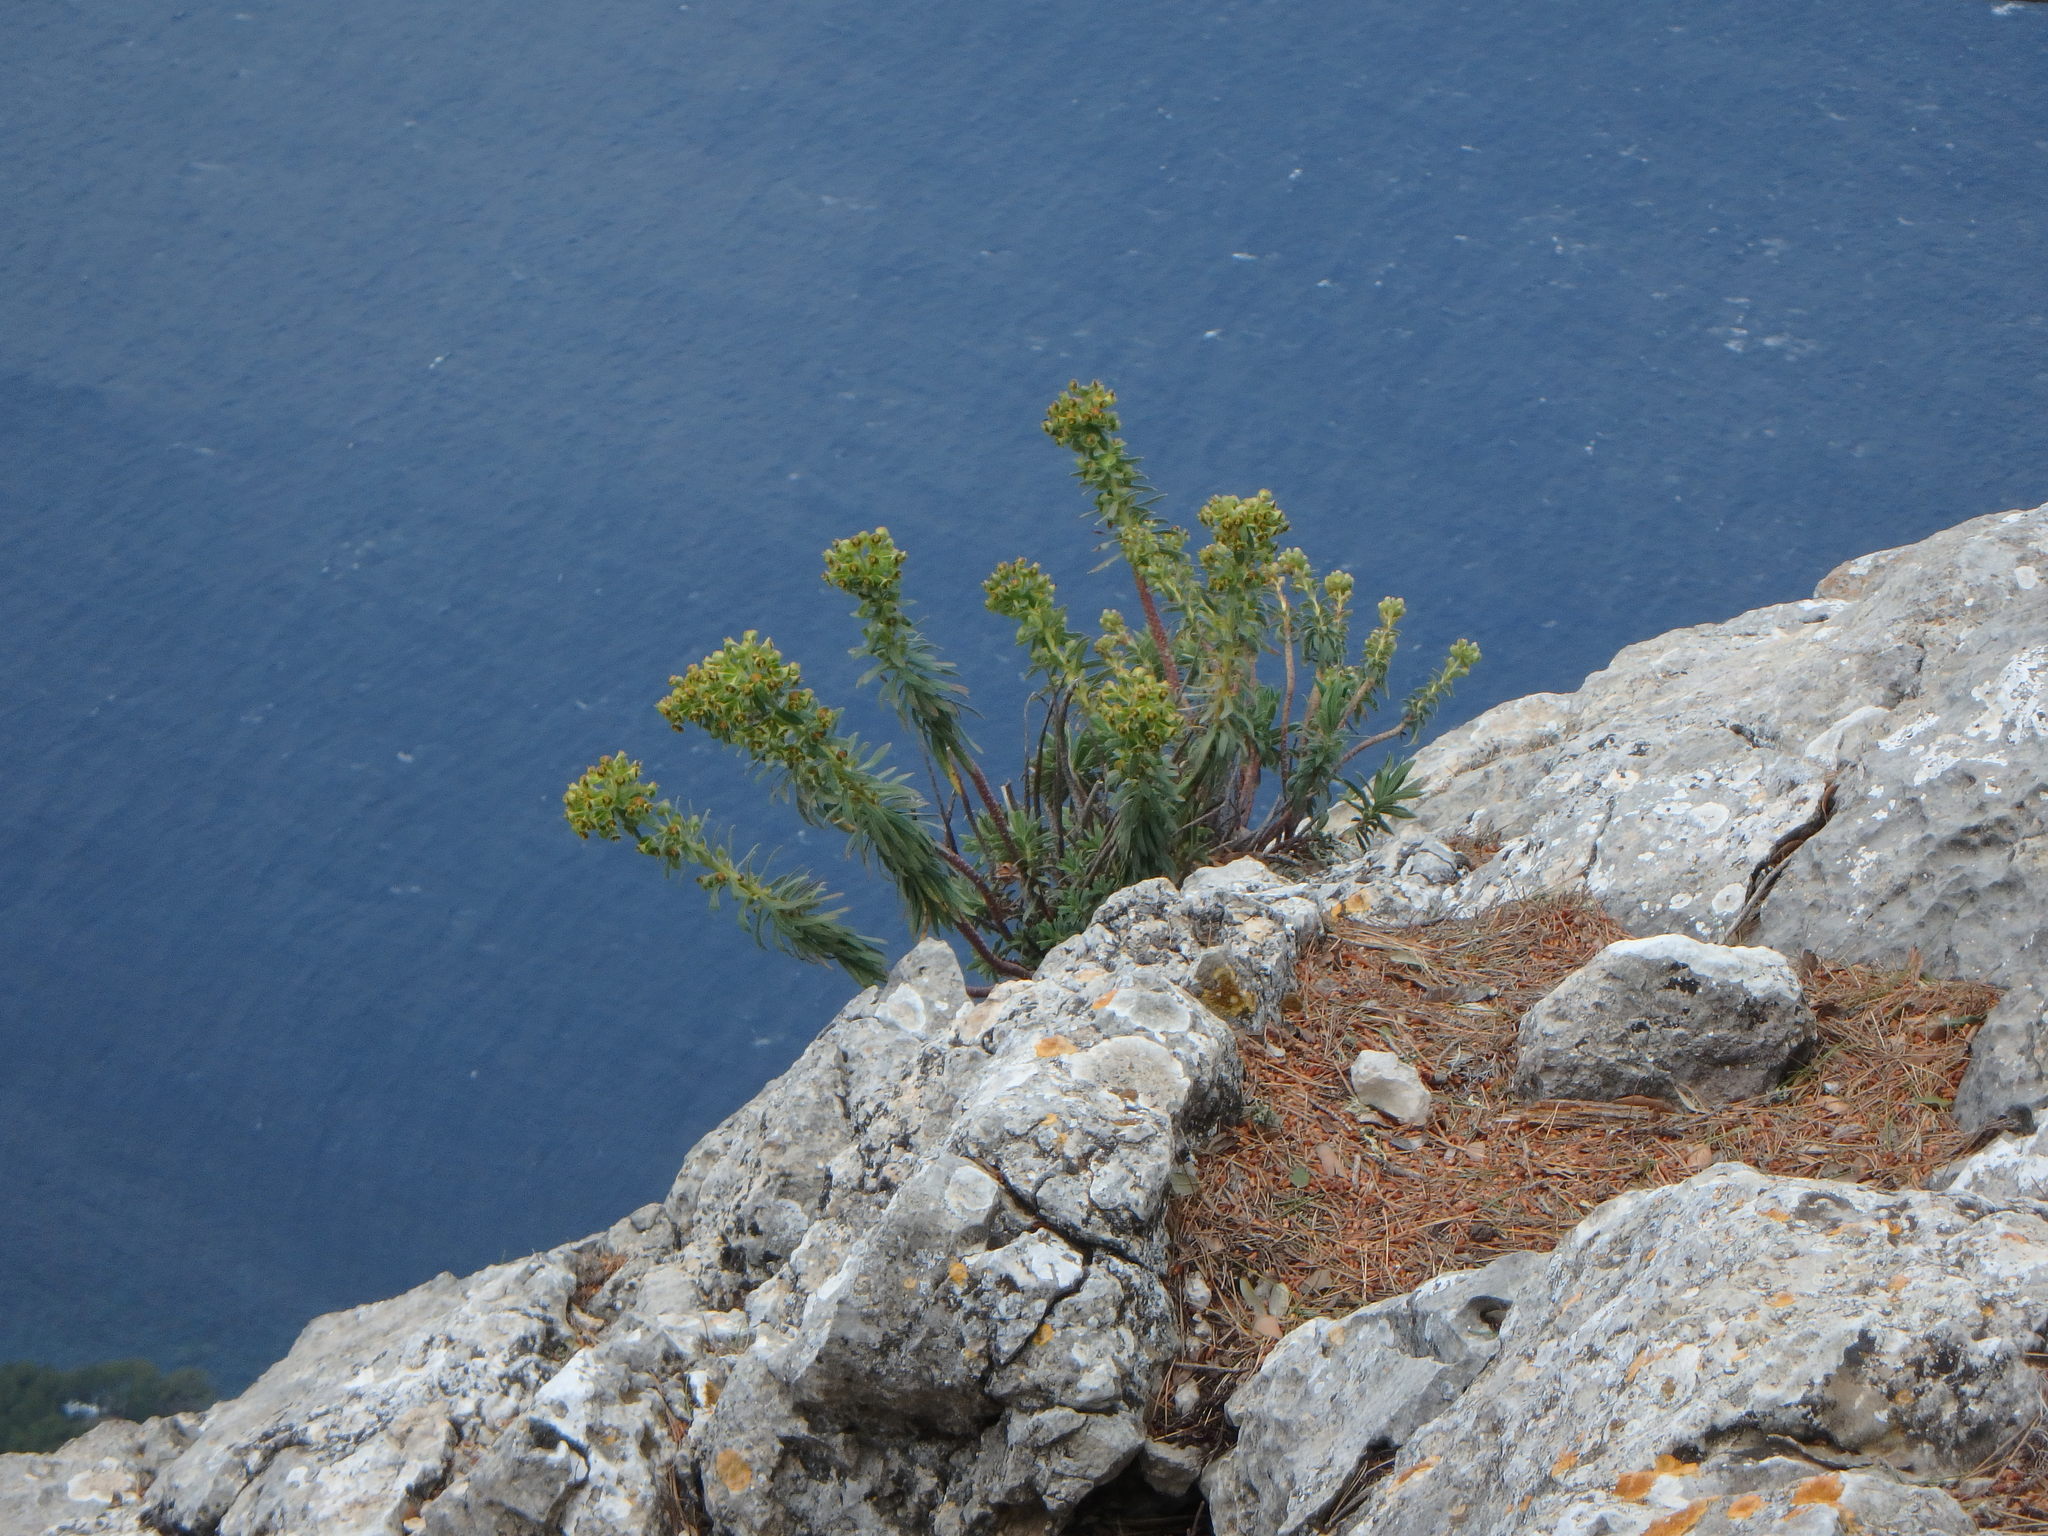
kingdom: Plantae
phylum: Tracheophyta
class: Magnoliopsida
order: Malpighiales
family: Euphorbiaceae
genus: Euphorbia
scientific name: Euphorbia characias
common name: Mediterranean spurge
